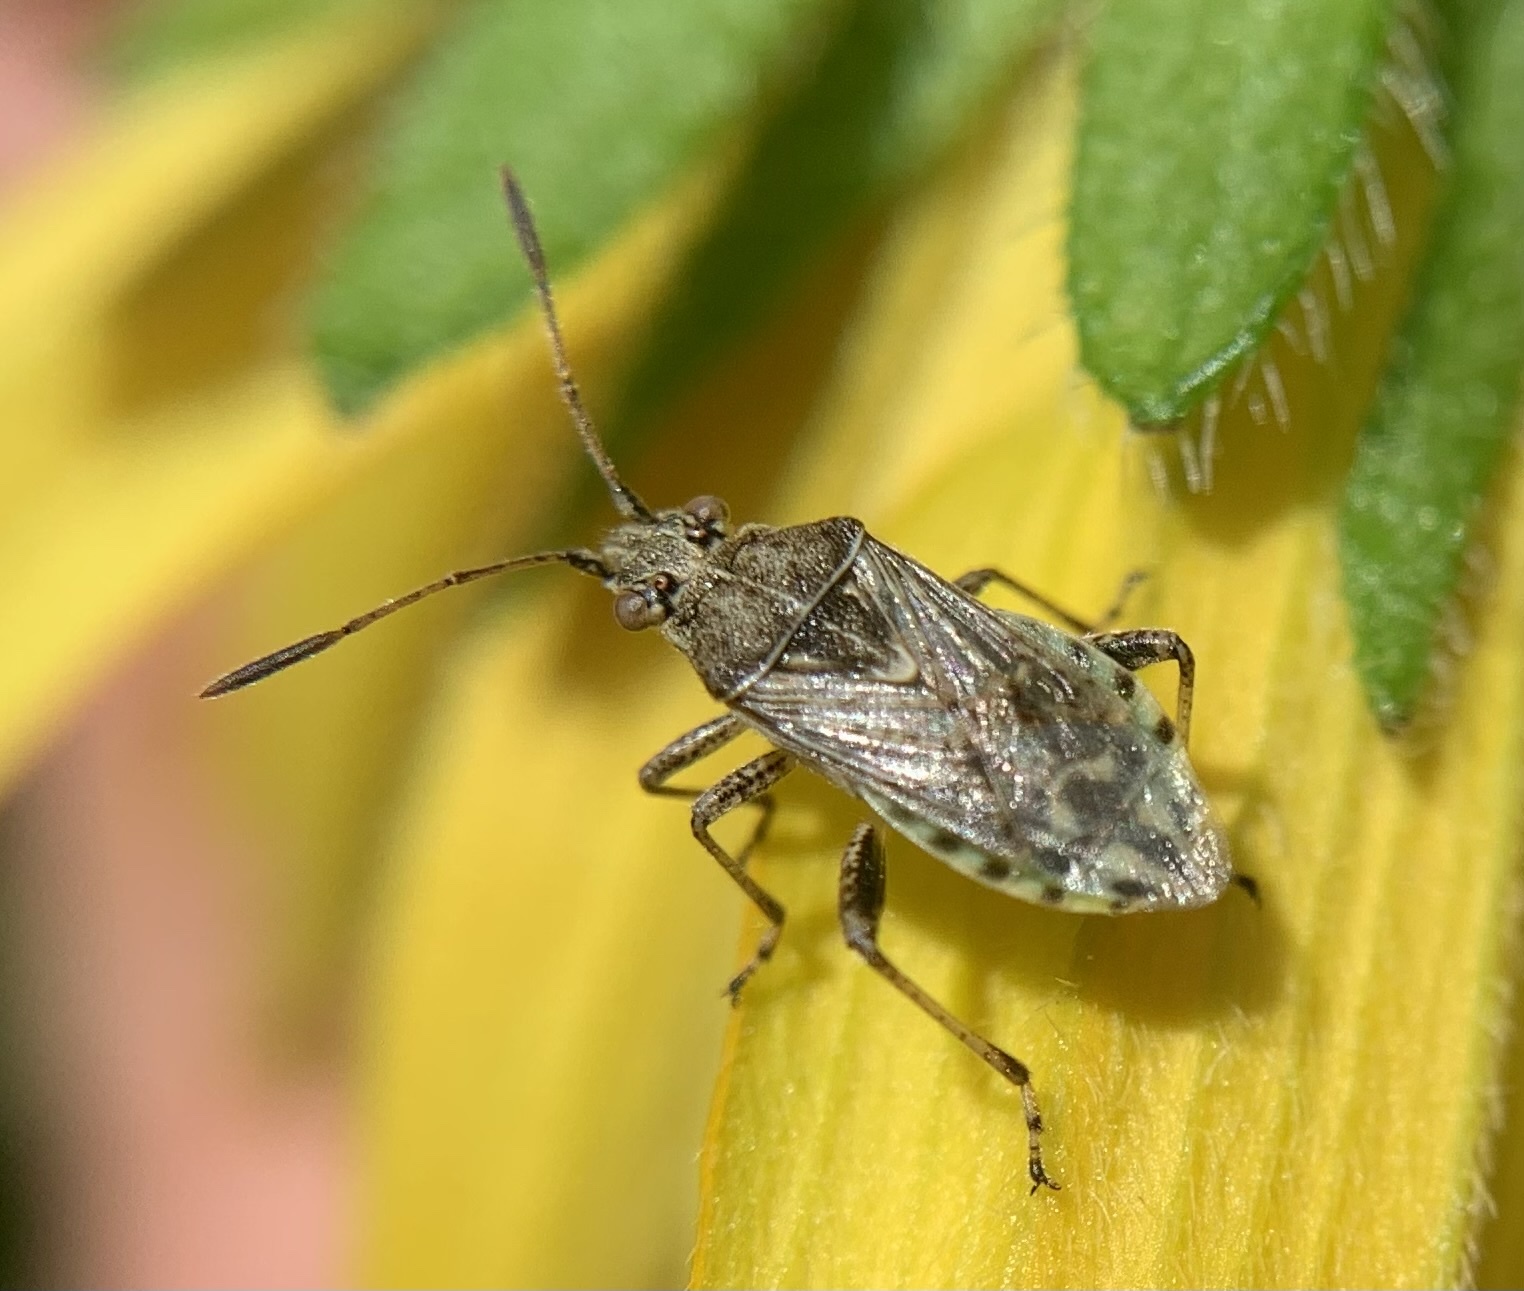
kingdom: Animalia
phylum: Arthropoda
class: Insecta
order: Hemiptera
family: Rhopalidae
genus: Stictopleurus
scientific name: Stictopleurus punctatonervosus
